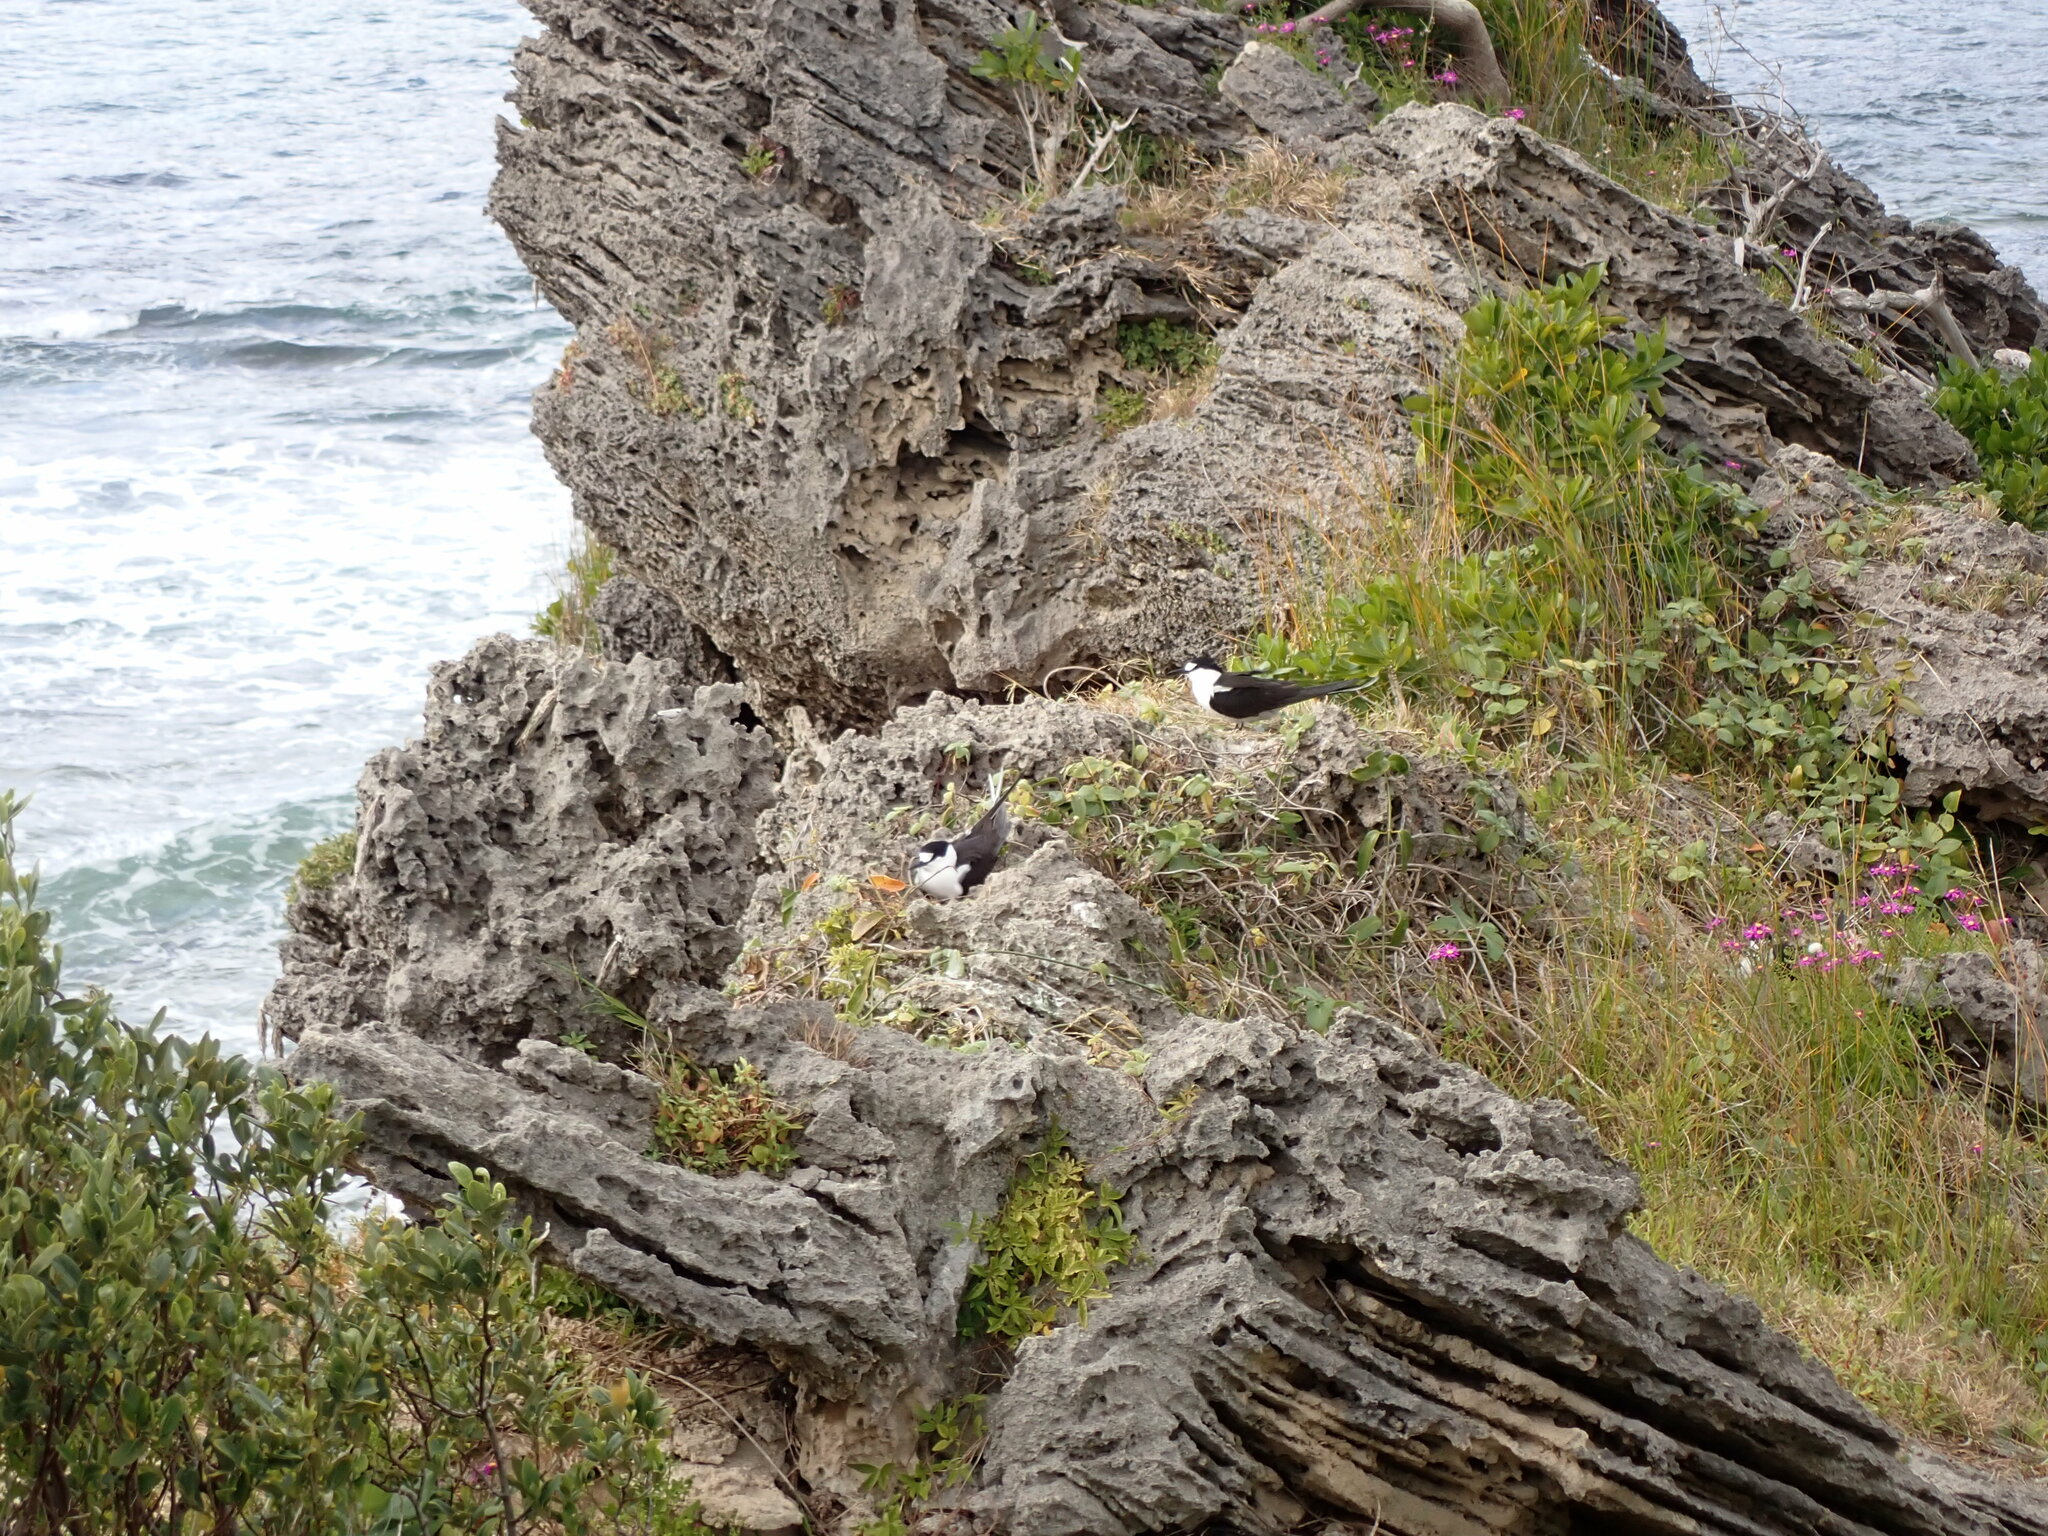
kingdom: Animalia
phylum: Chordata
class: Aves
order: Charadriiformes
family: Laridae
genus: Onychoprion
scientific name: Onychoprion fuscatus
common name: Sooty tern
